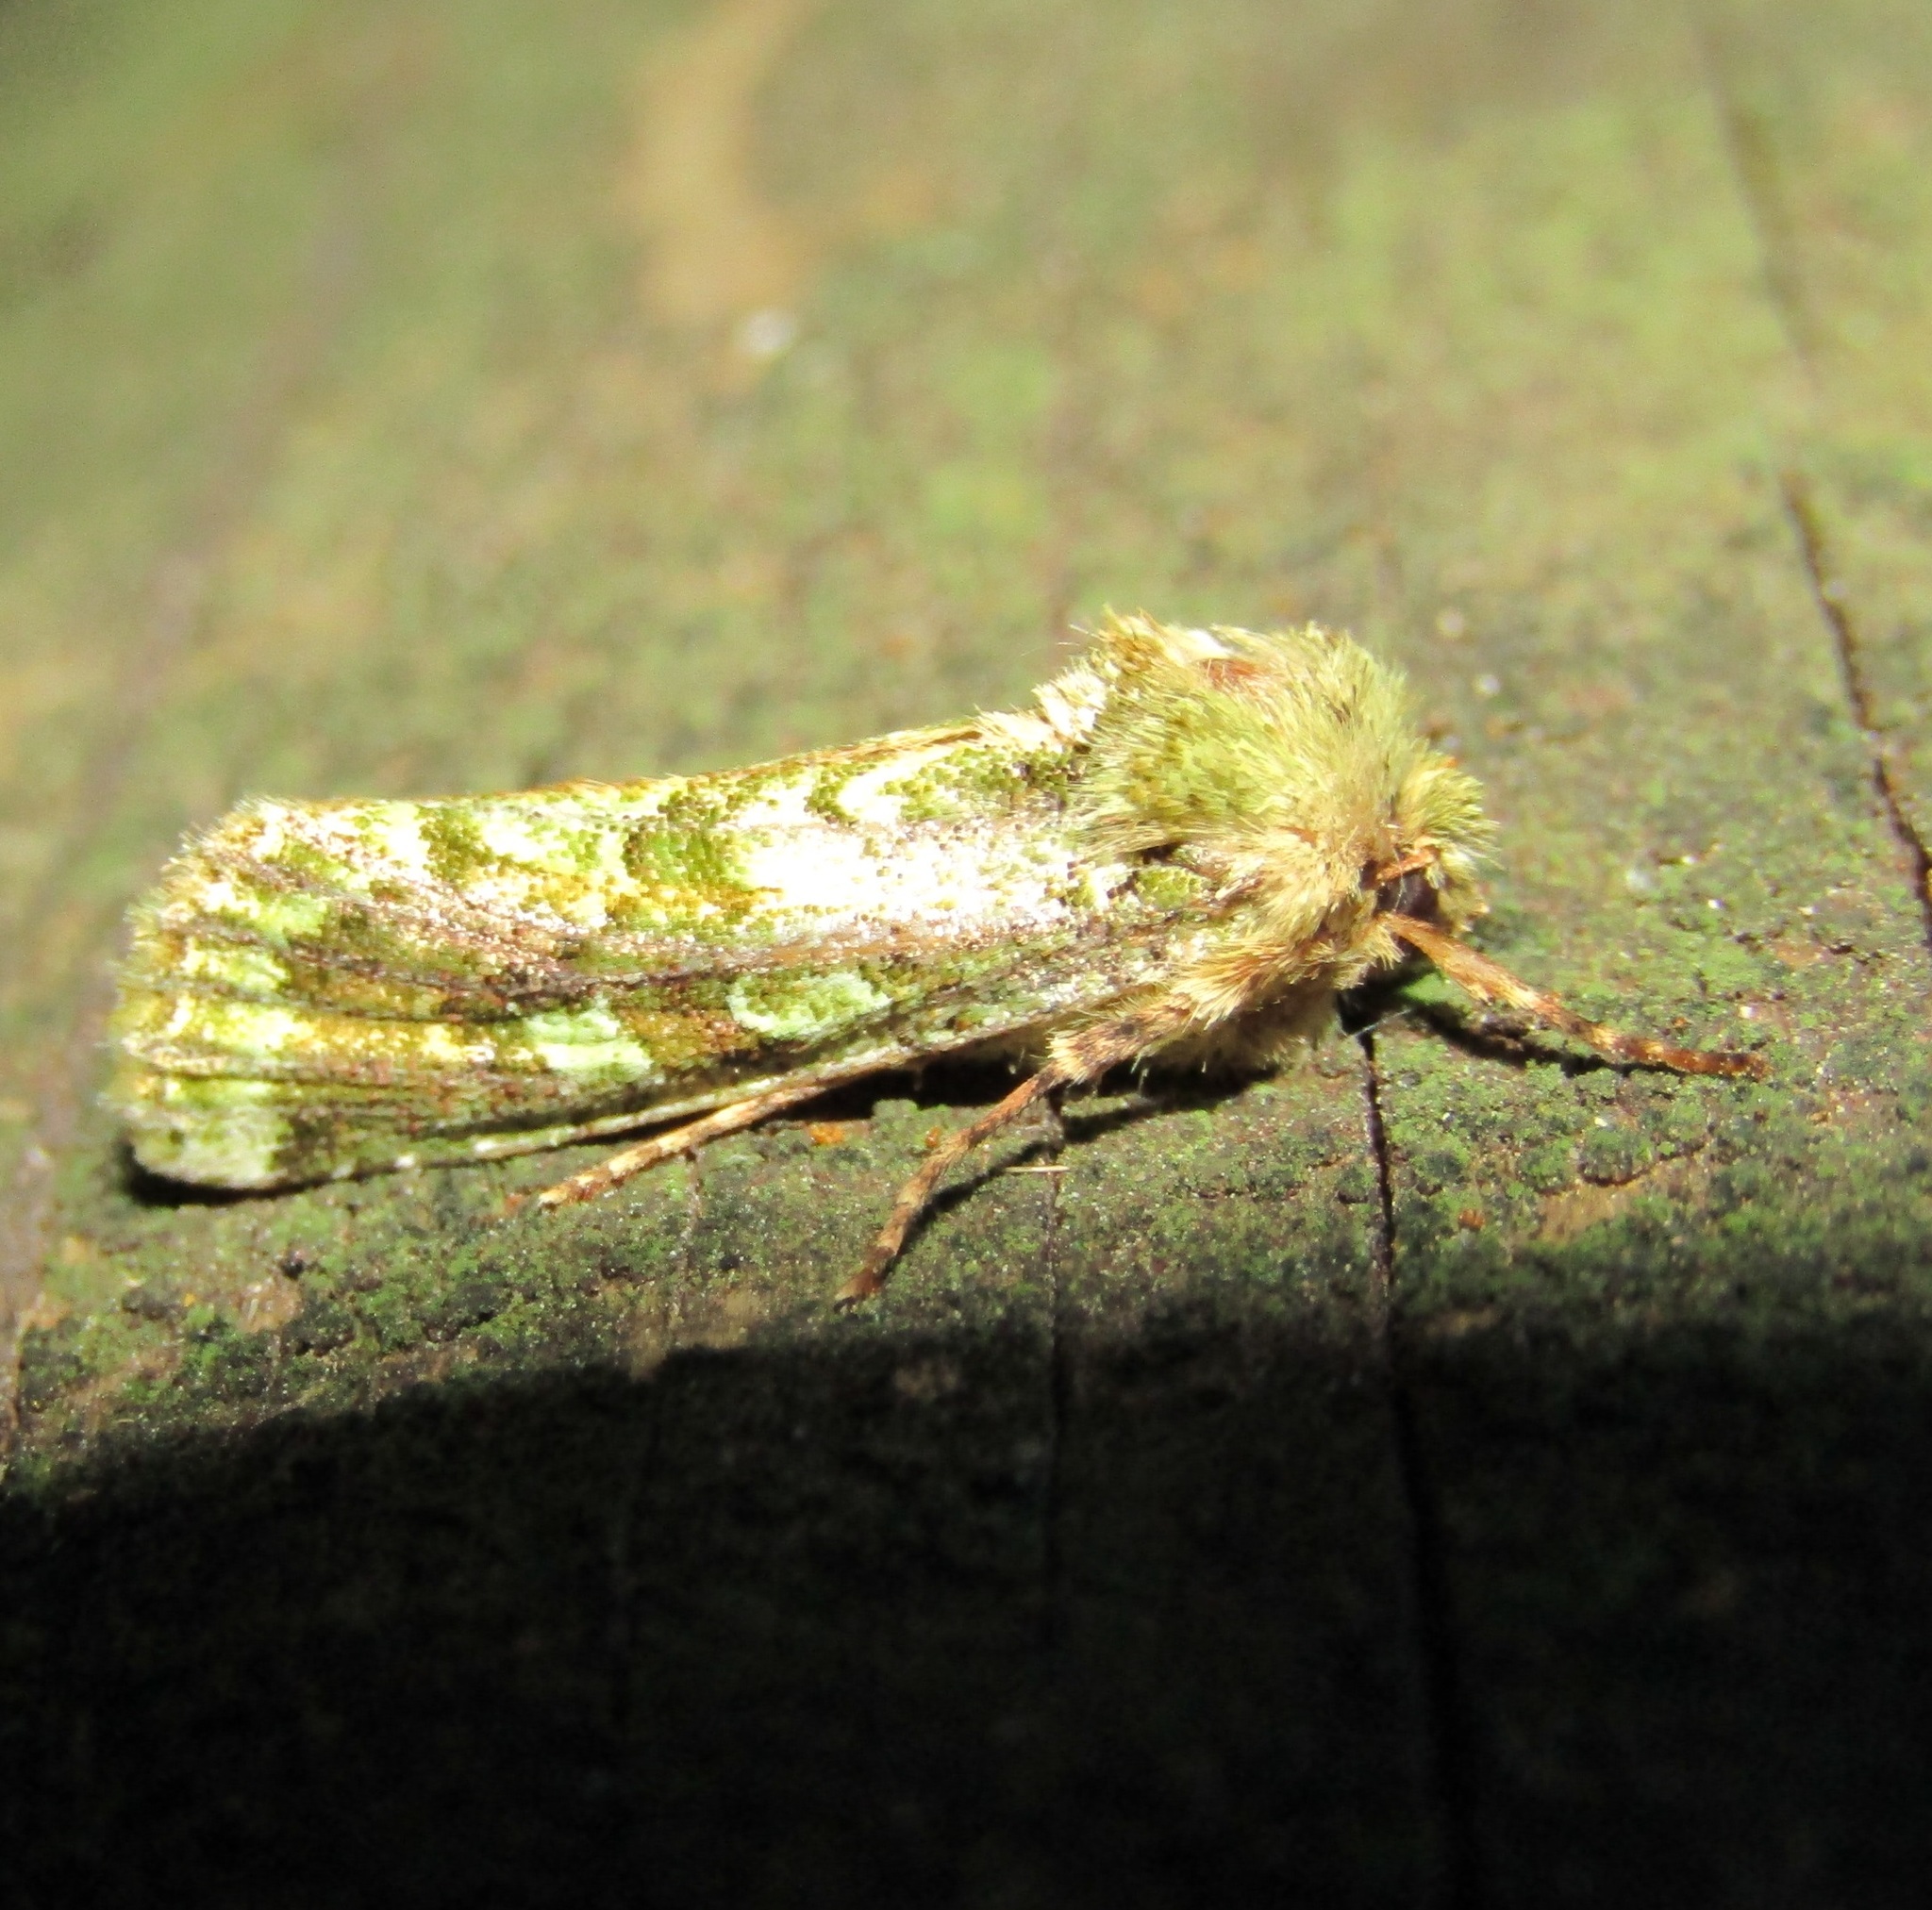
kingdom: Animalia
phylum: Arthropoda
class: Insecta
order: Lepidoptera
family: Noctuidae
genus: Feredayia
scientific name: Feredayia grammosa
